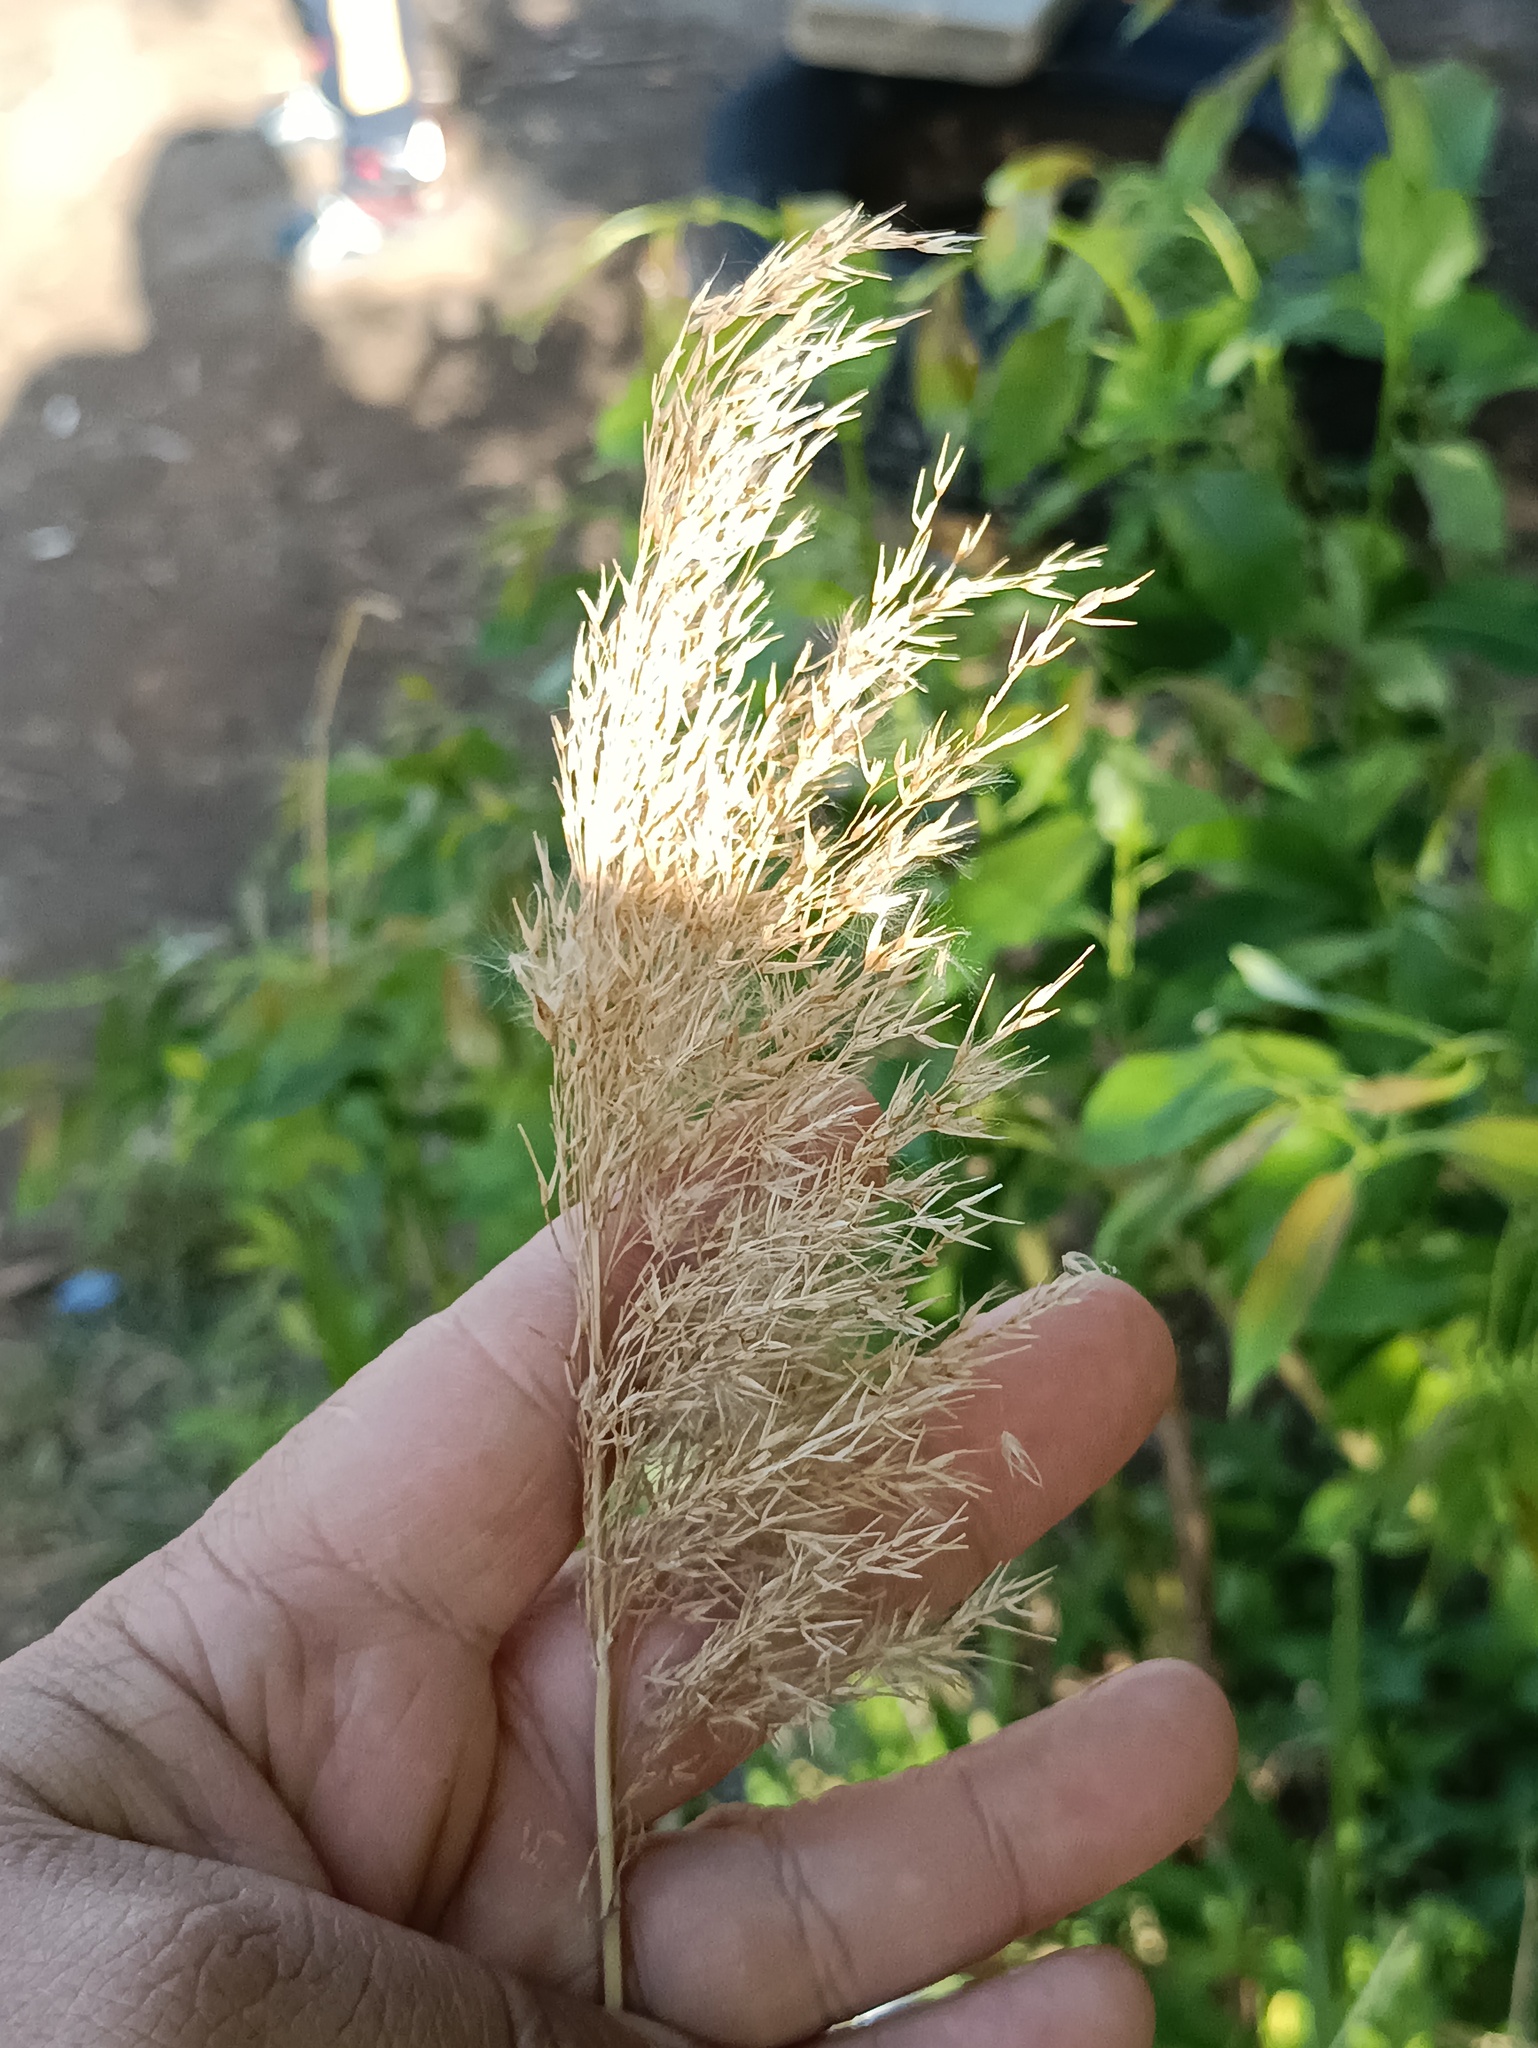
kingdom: Plantae
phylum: Tracheophyta
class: Liliopsida
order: Poales
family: Poaceae
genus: Calamagrostis
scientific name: Calamagrostis epigejos
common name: Wood small-reed
